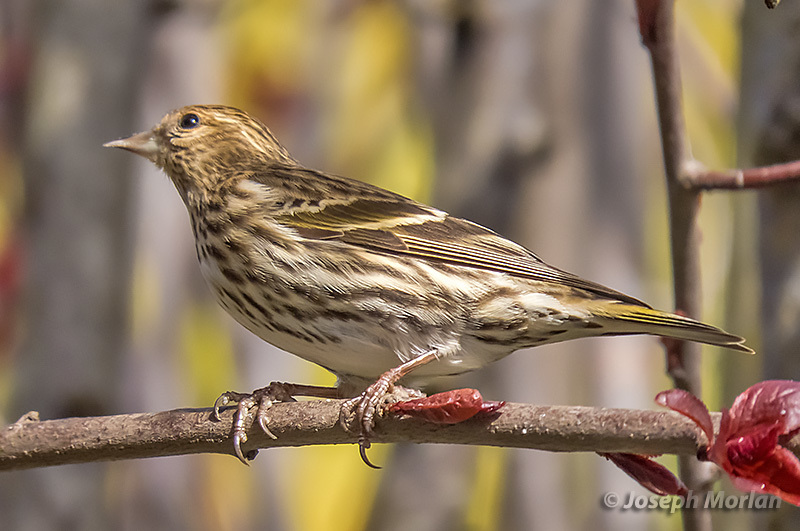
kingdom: Animalia
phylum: Chordata
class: Aves
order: Passeriformes
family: Fringillidae
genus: Spinus
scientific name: Spinus pinus
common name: Pine siskin
